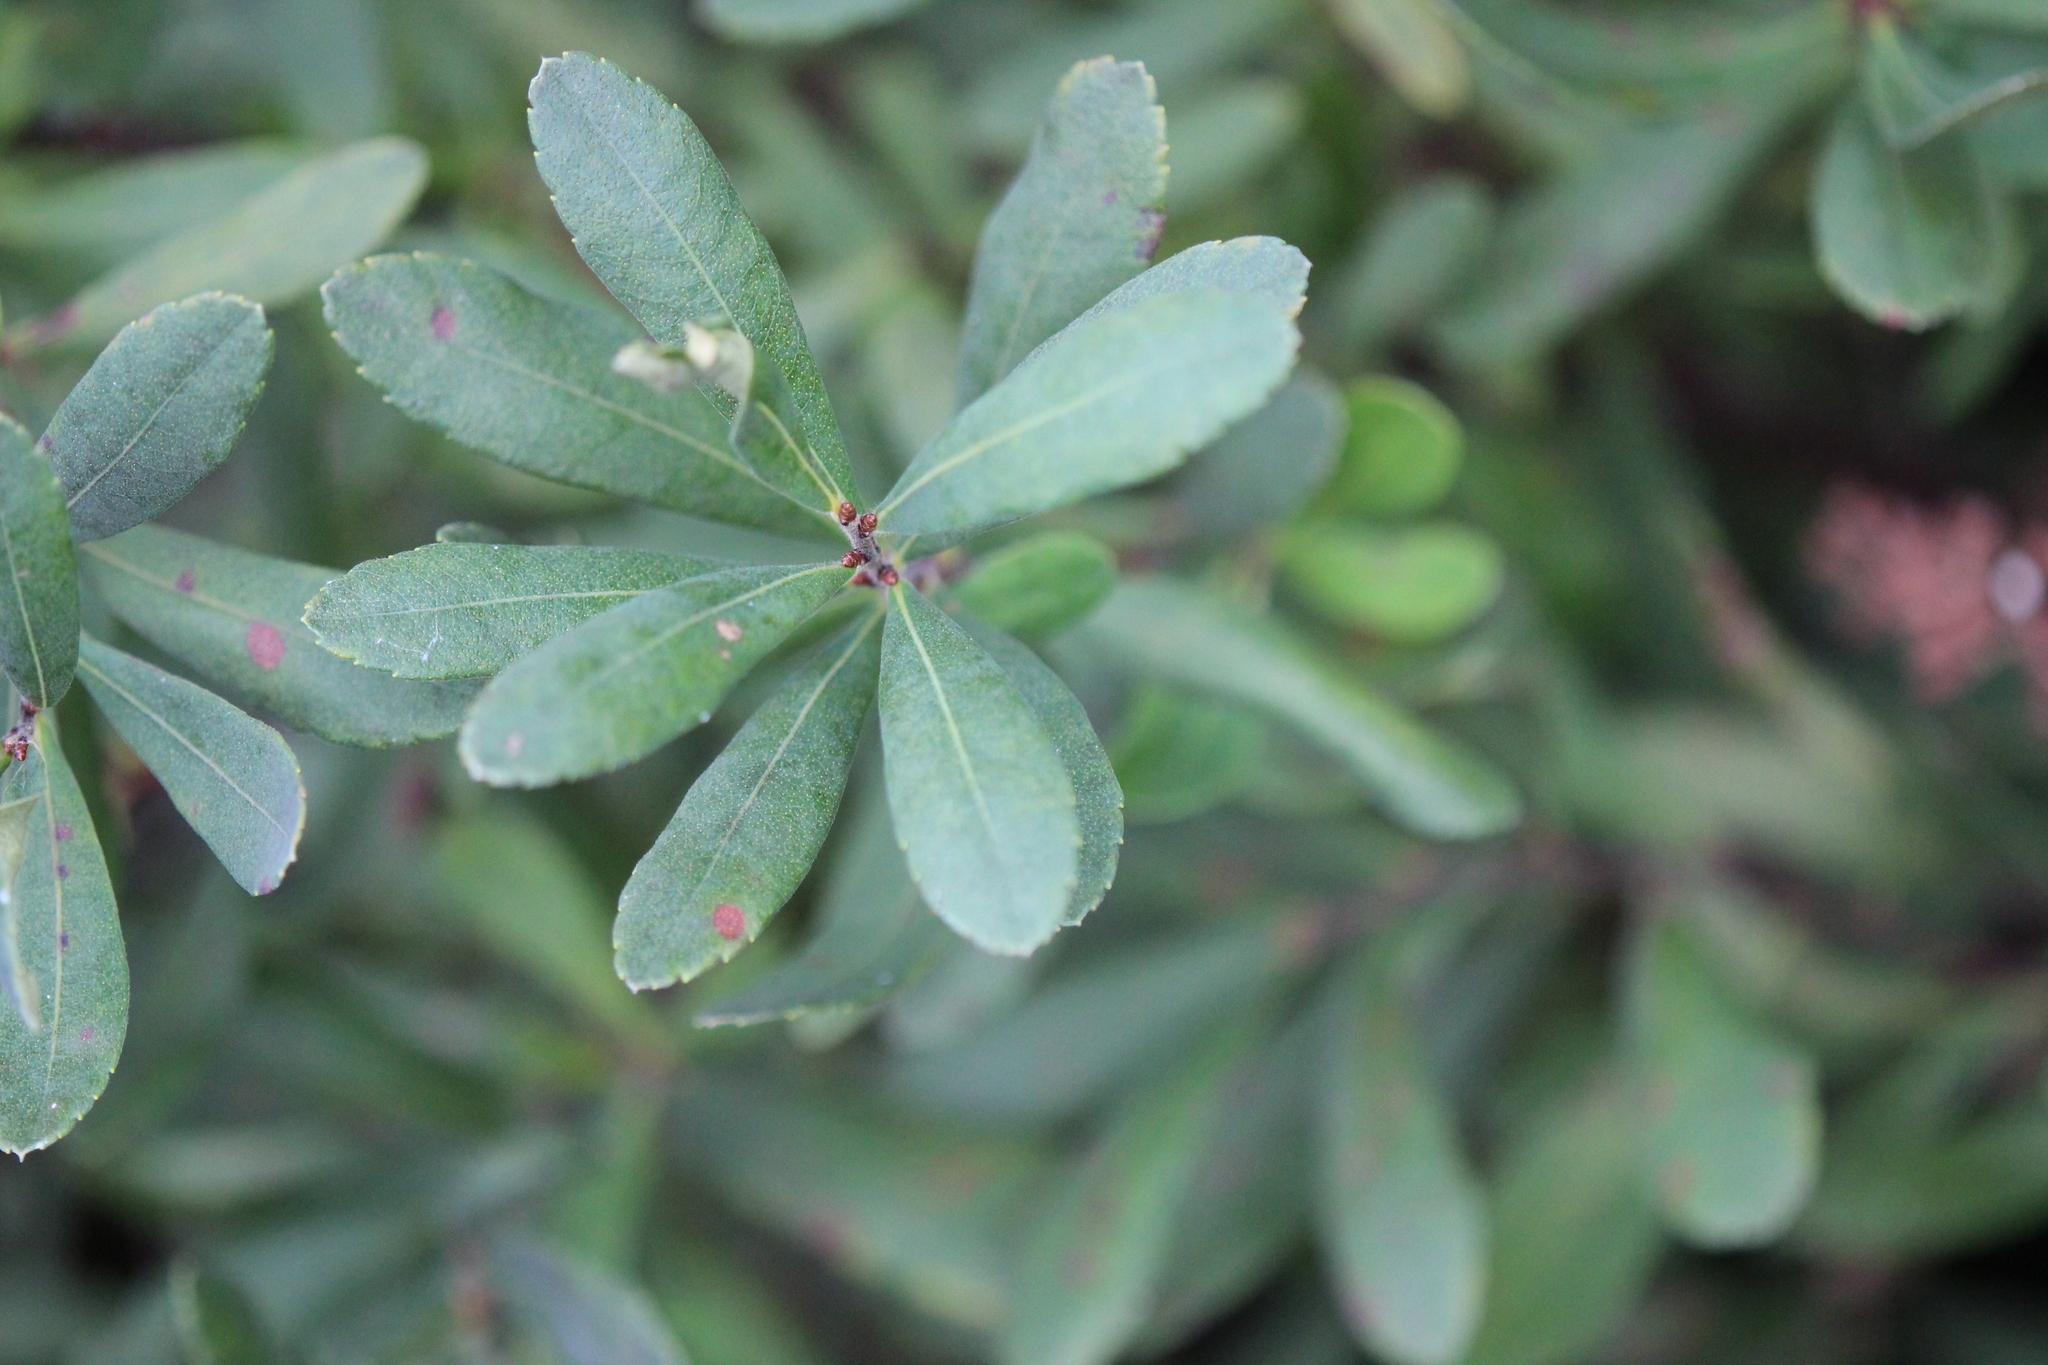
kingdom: Plantae
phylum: Tracheophyta
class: Magnoliopsida
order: Fagales
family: Myricaceae
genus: Myrica
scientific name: Myrica gale
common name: Sweet gale
